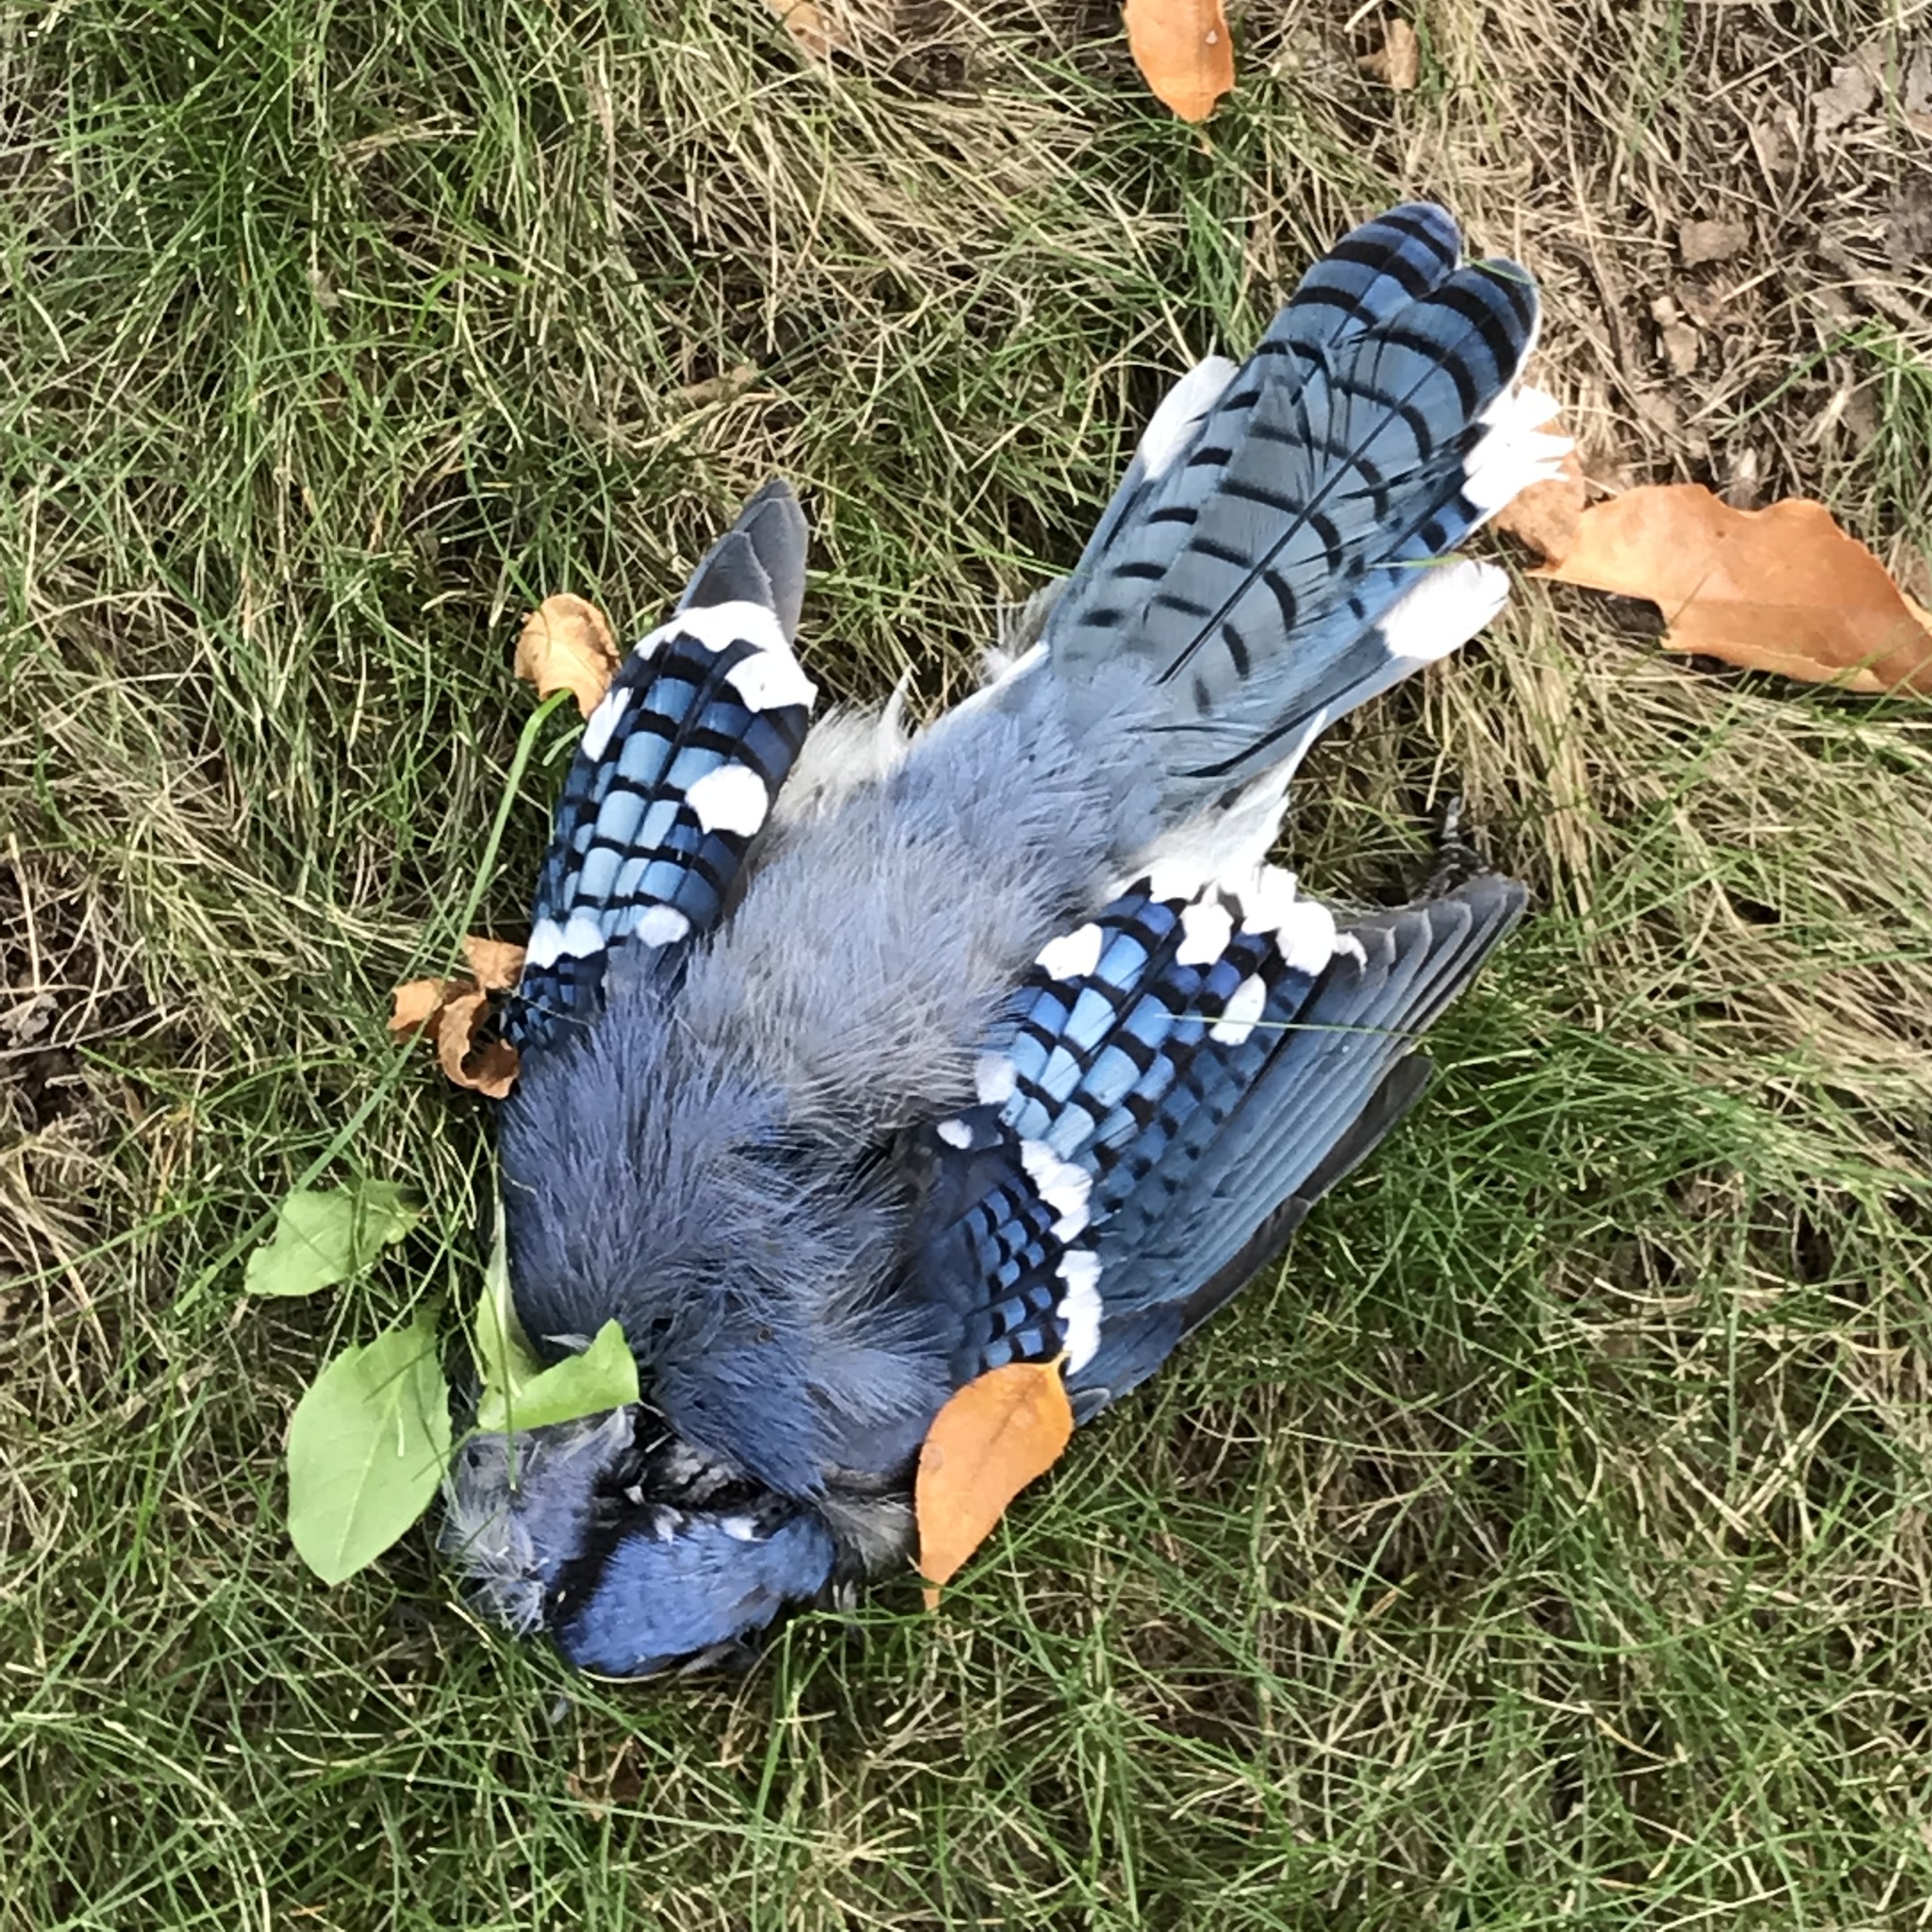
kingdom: Animalia
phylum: Chordata
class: Aves
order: Passeriformes
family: Corvidae
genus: Cyanocitta
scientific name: Cyanocitta cristata
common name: Blue jay
